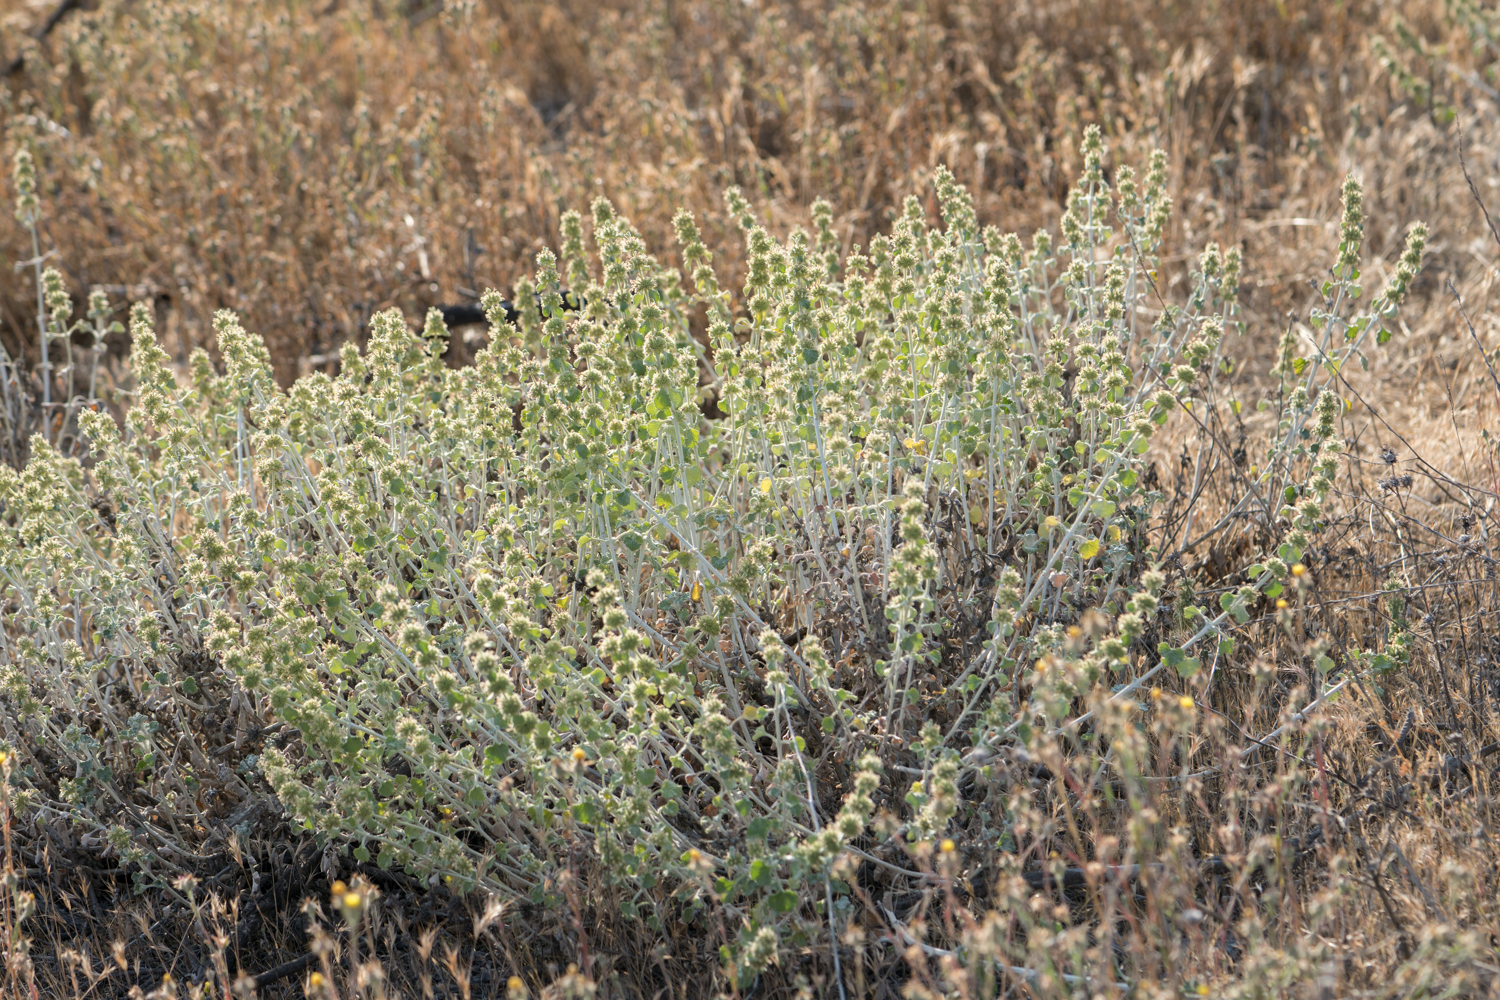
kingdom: Plantae
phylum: Tracheophyta
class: Magnoliopsida
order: Lamiales
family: Lamiaceae
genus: Marrubium
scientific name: Marrubium vulgare
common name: Horehound
